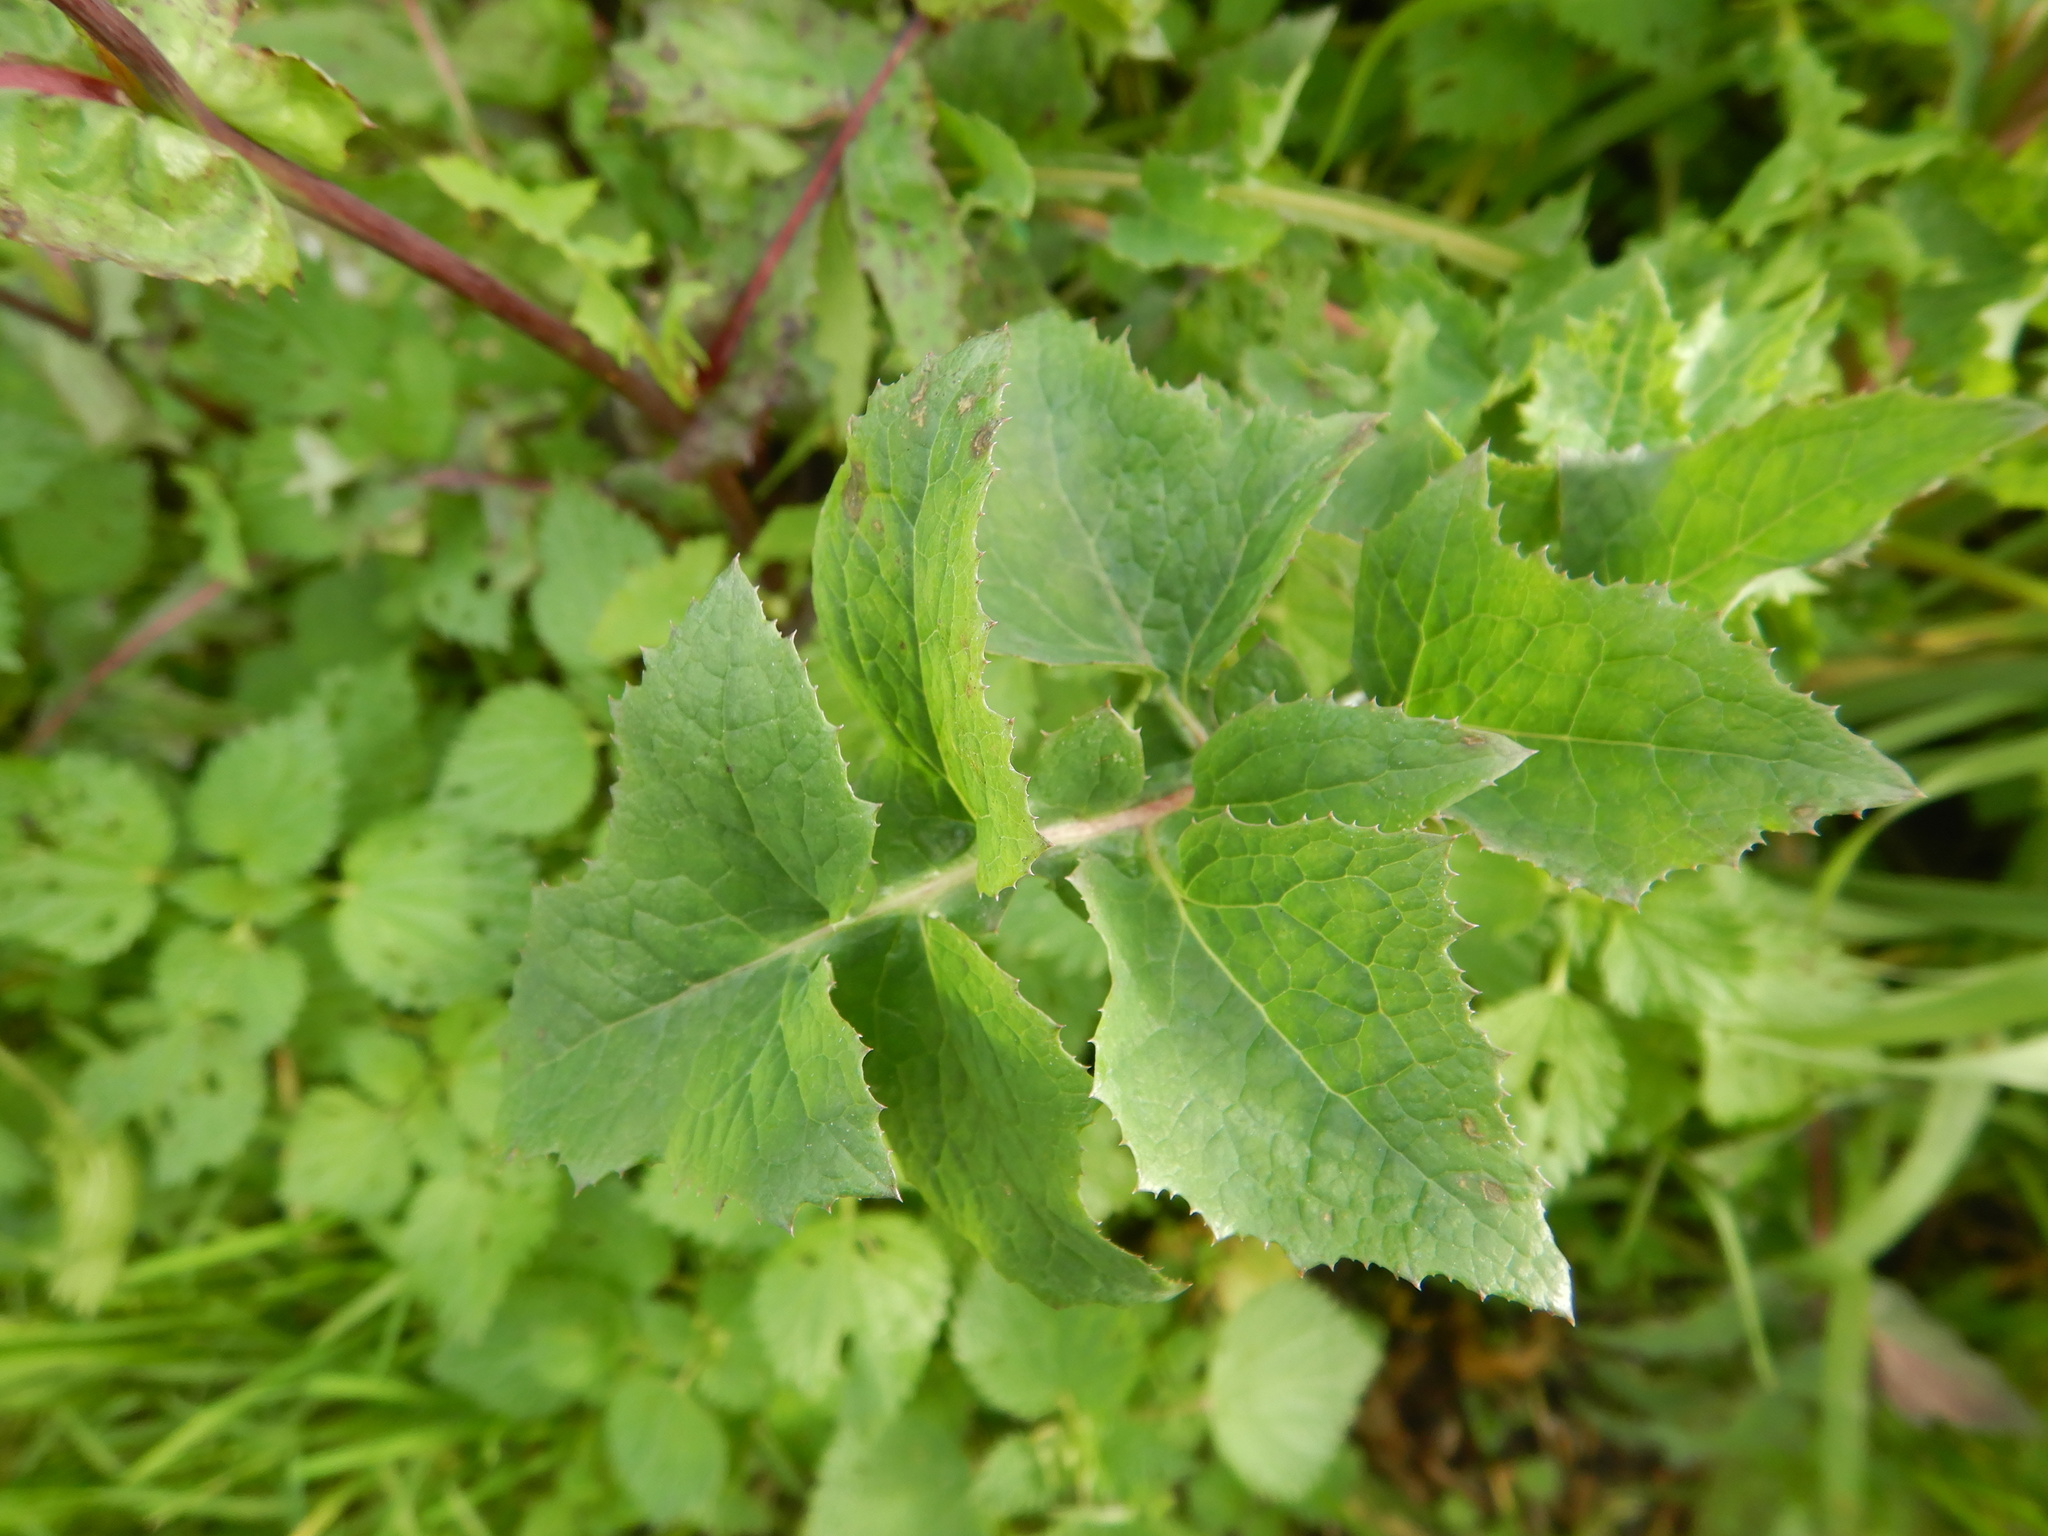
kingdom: Plantae
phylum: Tracheophyta
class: Magnoliopsida
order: Asterales
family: Asteraceae
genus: Sonchus
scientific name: Sonchus oleraceus
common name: Common sowthistle
